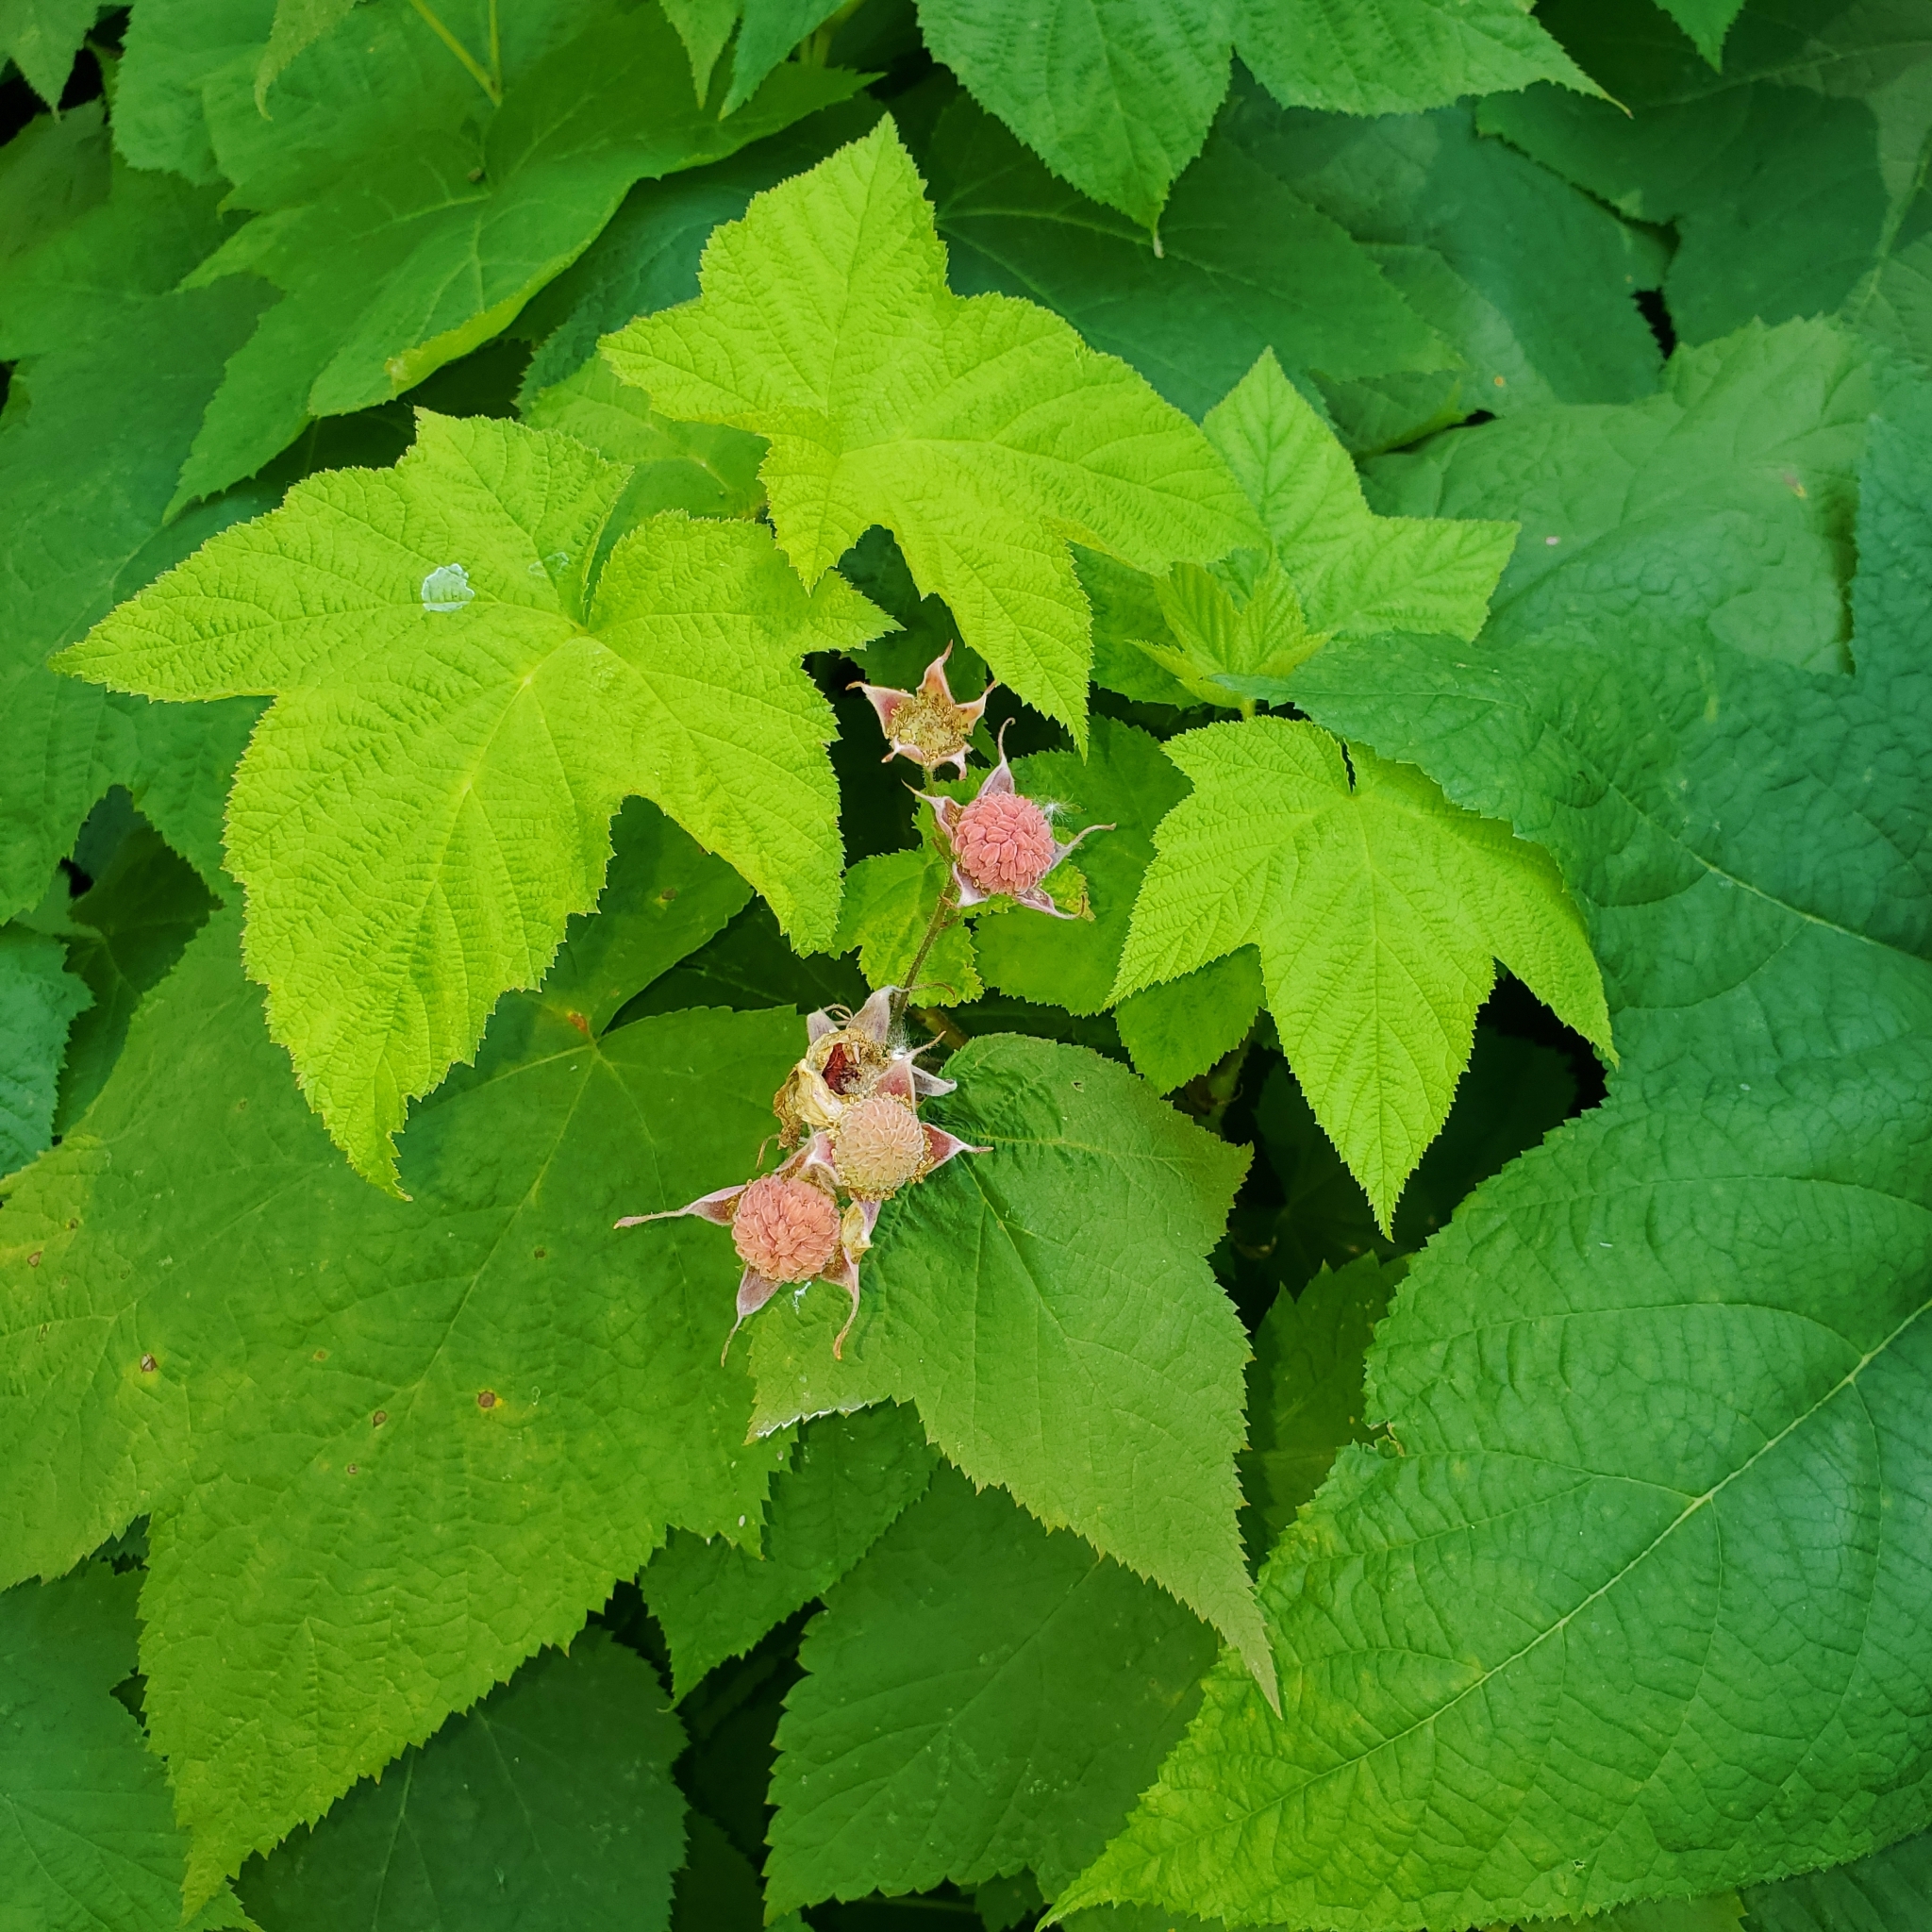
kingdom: Plantae
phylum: Tracheophyta
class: Magnoliopsida
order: Rosales
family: Rosaceae
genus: Rubus
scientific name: Rubus parviflorus
